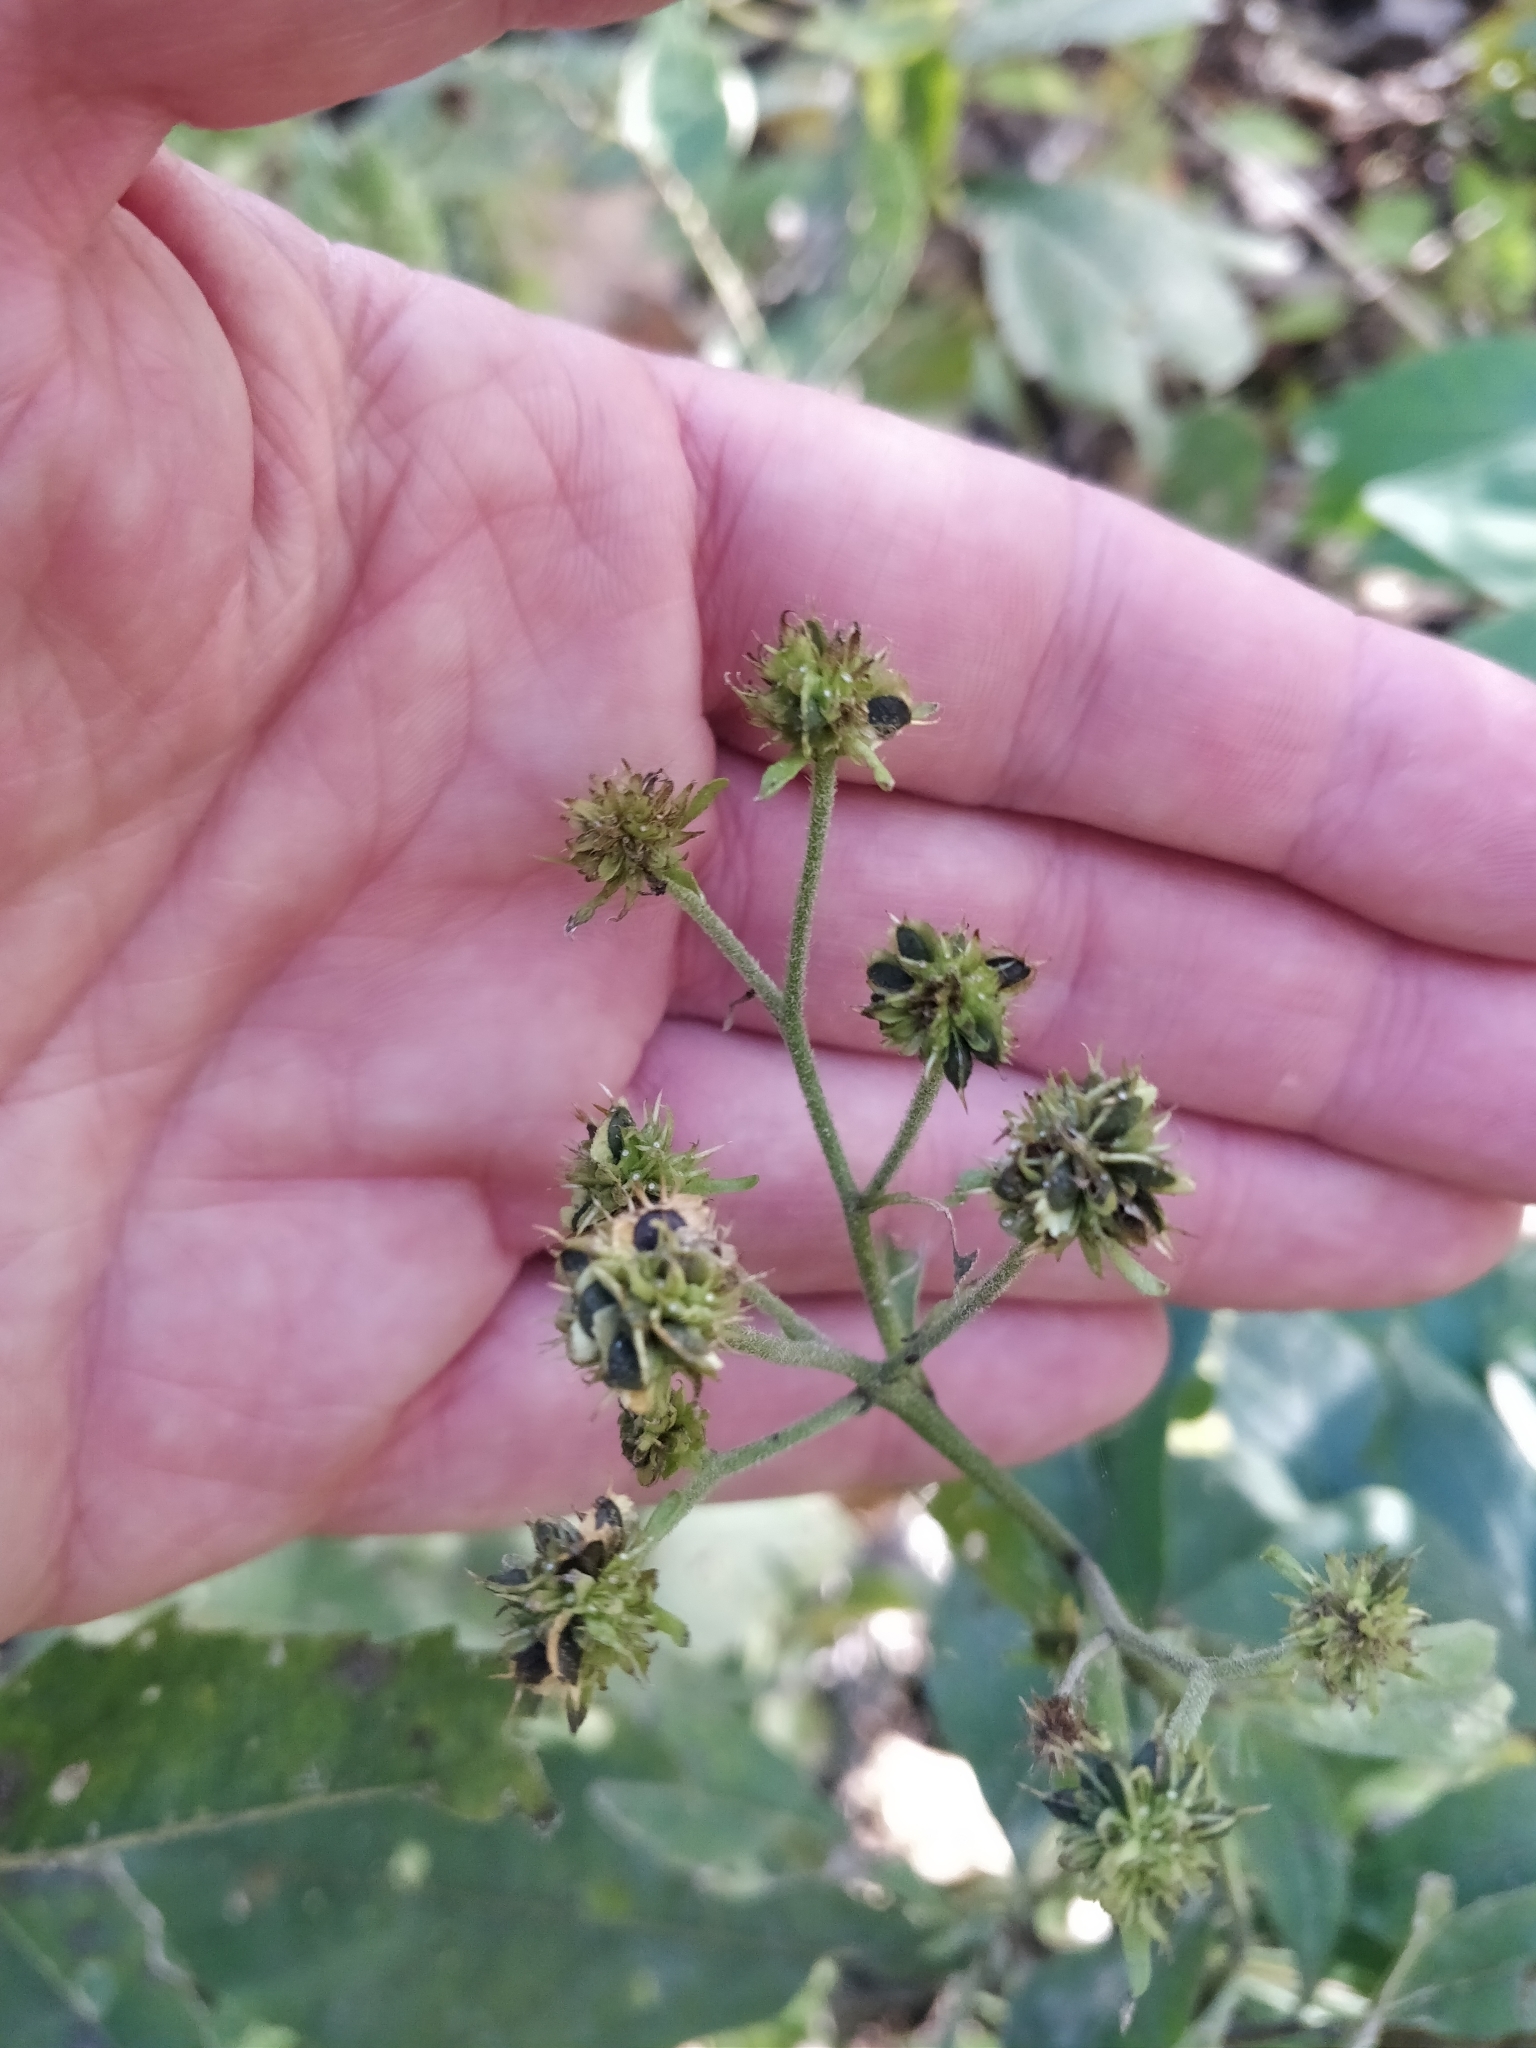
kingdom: Plantae
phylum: Tracheophyta
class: Magnoliopsida
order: Asterales
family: Asteraceae
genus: Verbesina
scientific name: Verbesina alternifolia
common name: Wingstem
